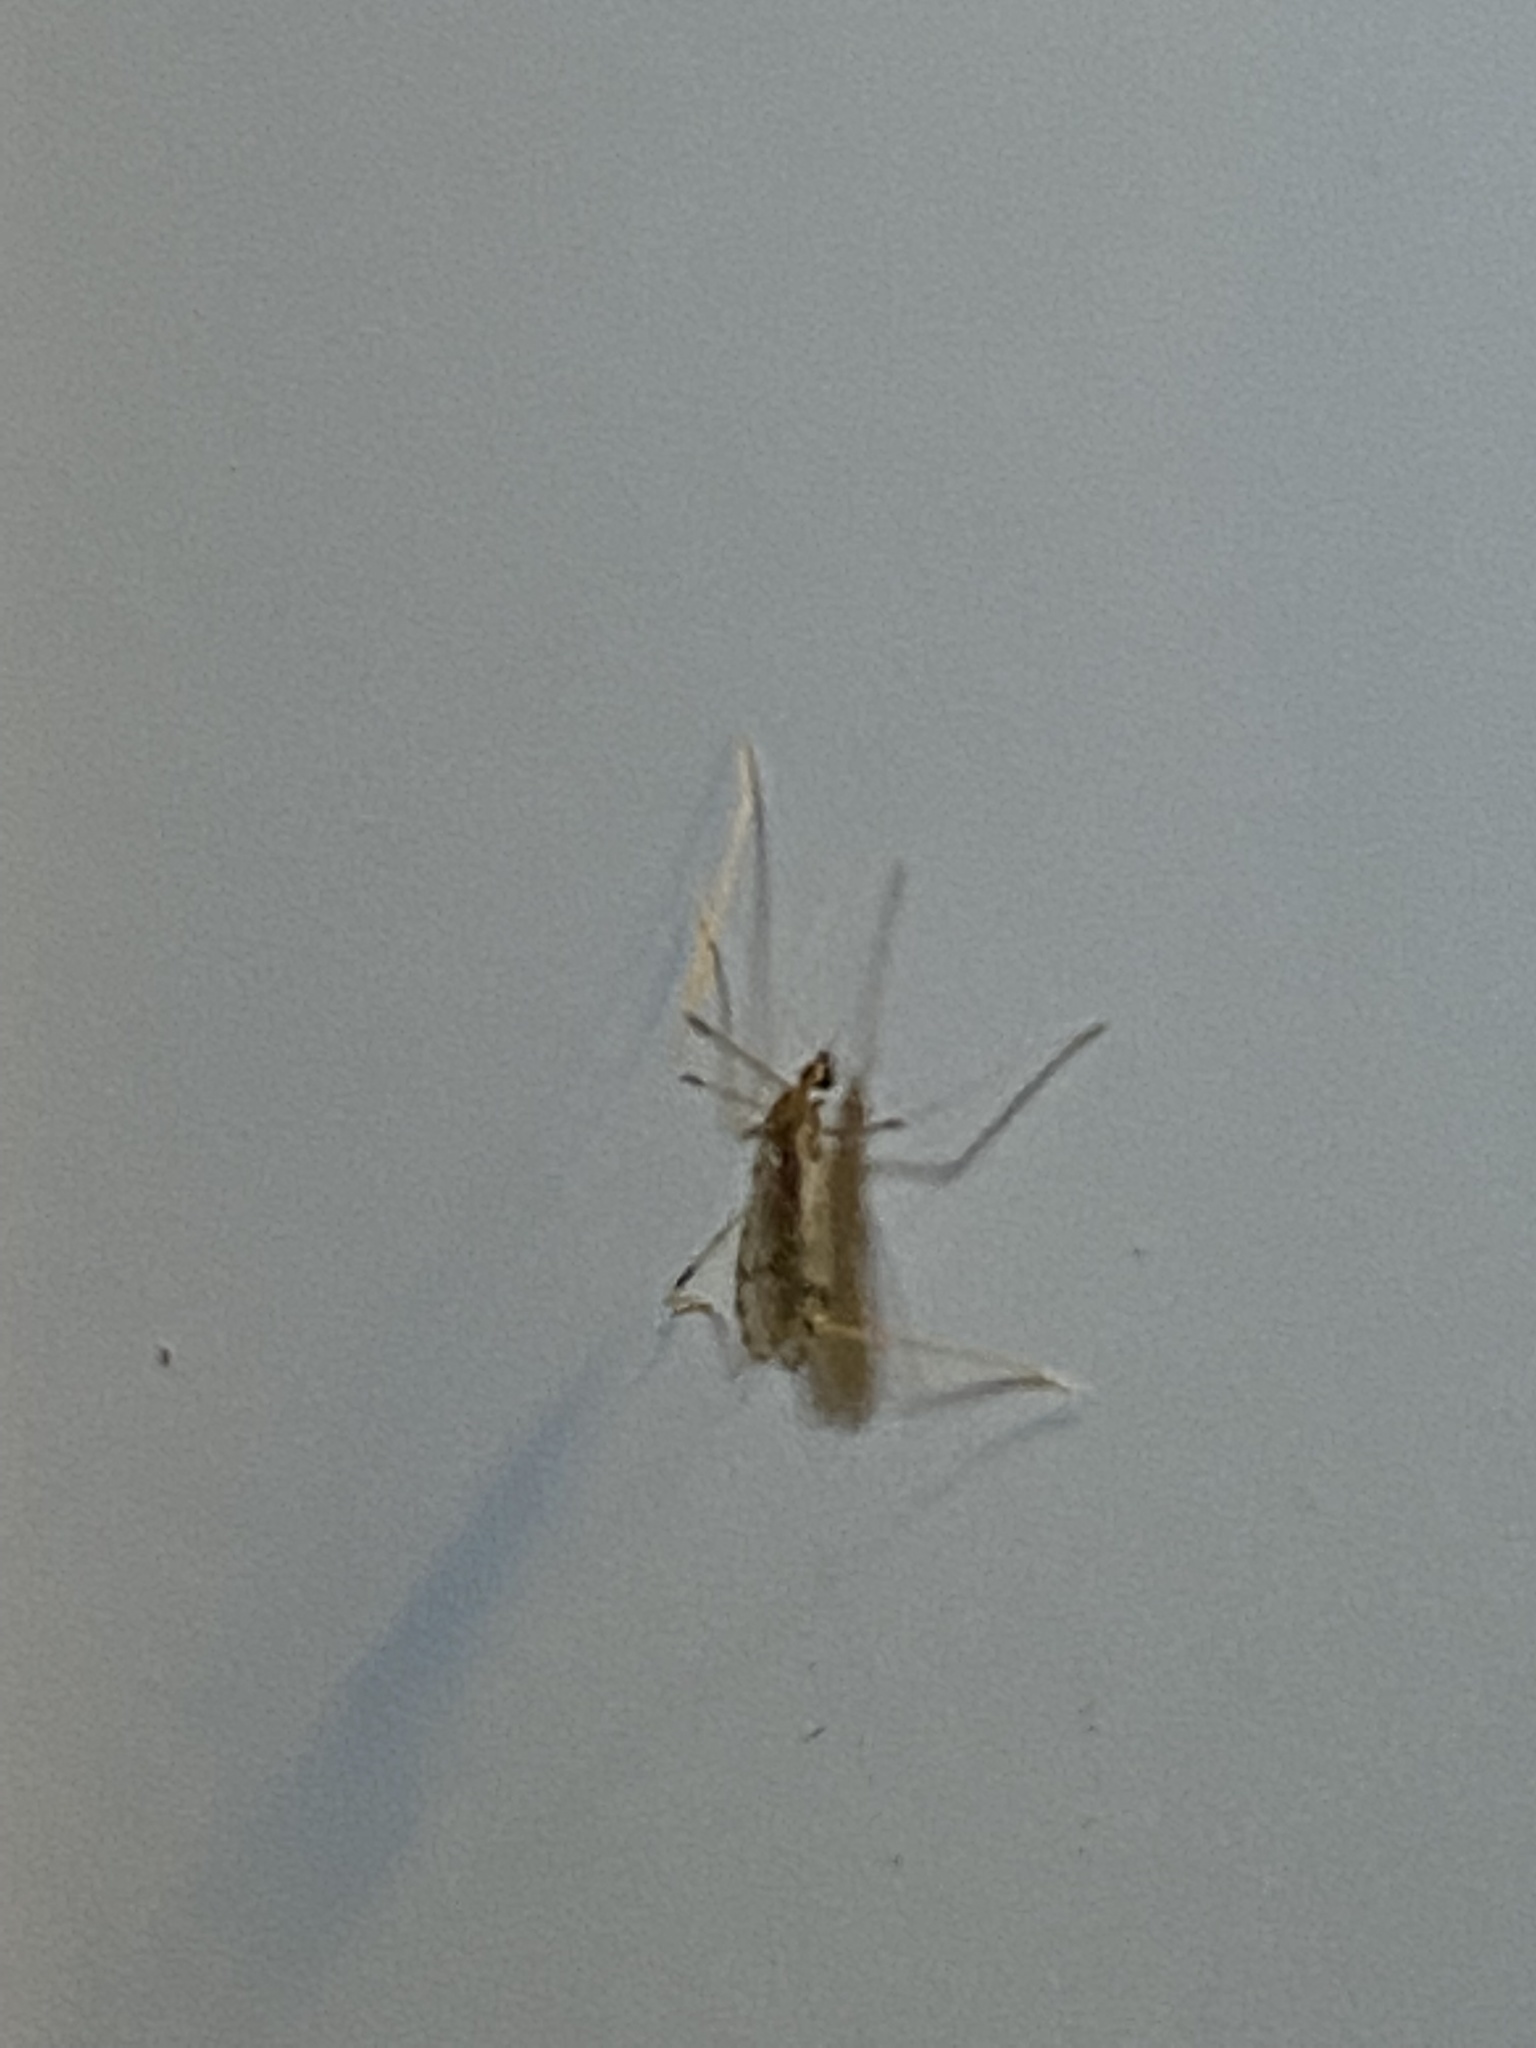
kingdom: Animalia
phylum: Arthropoda
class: Insecta
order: Diptera
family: Limoniidae
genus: Erioptera
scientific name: Erioptera parva
